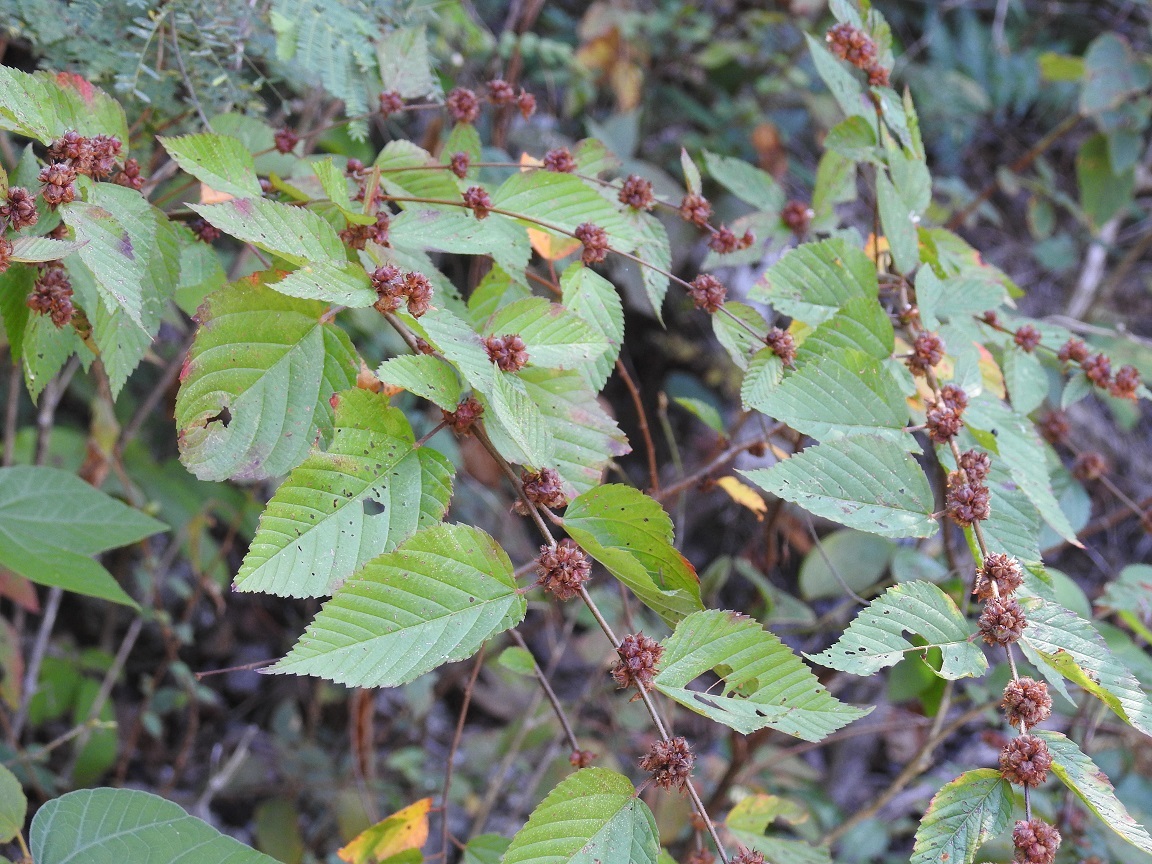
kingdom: Plantae
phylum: Tracheophyta
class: Magnoliopsida
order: Malvales
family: Malvaceae
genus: Melochia
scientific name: Melochia nodiflora
